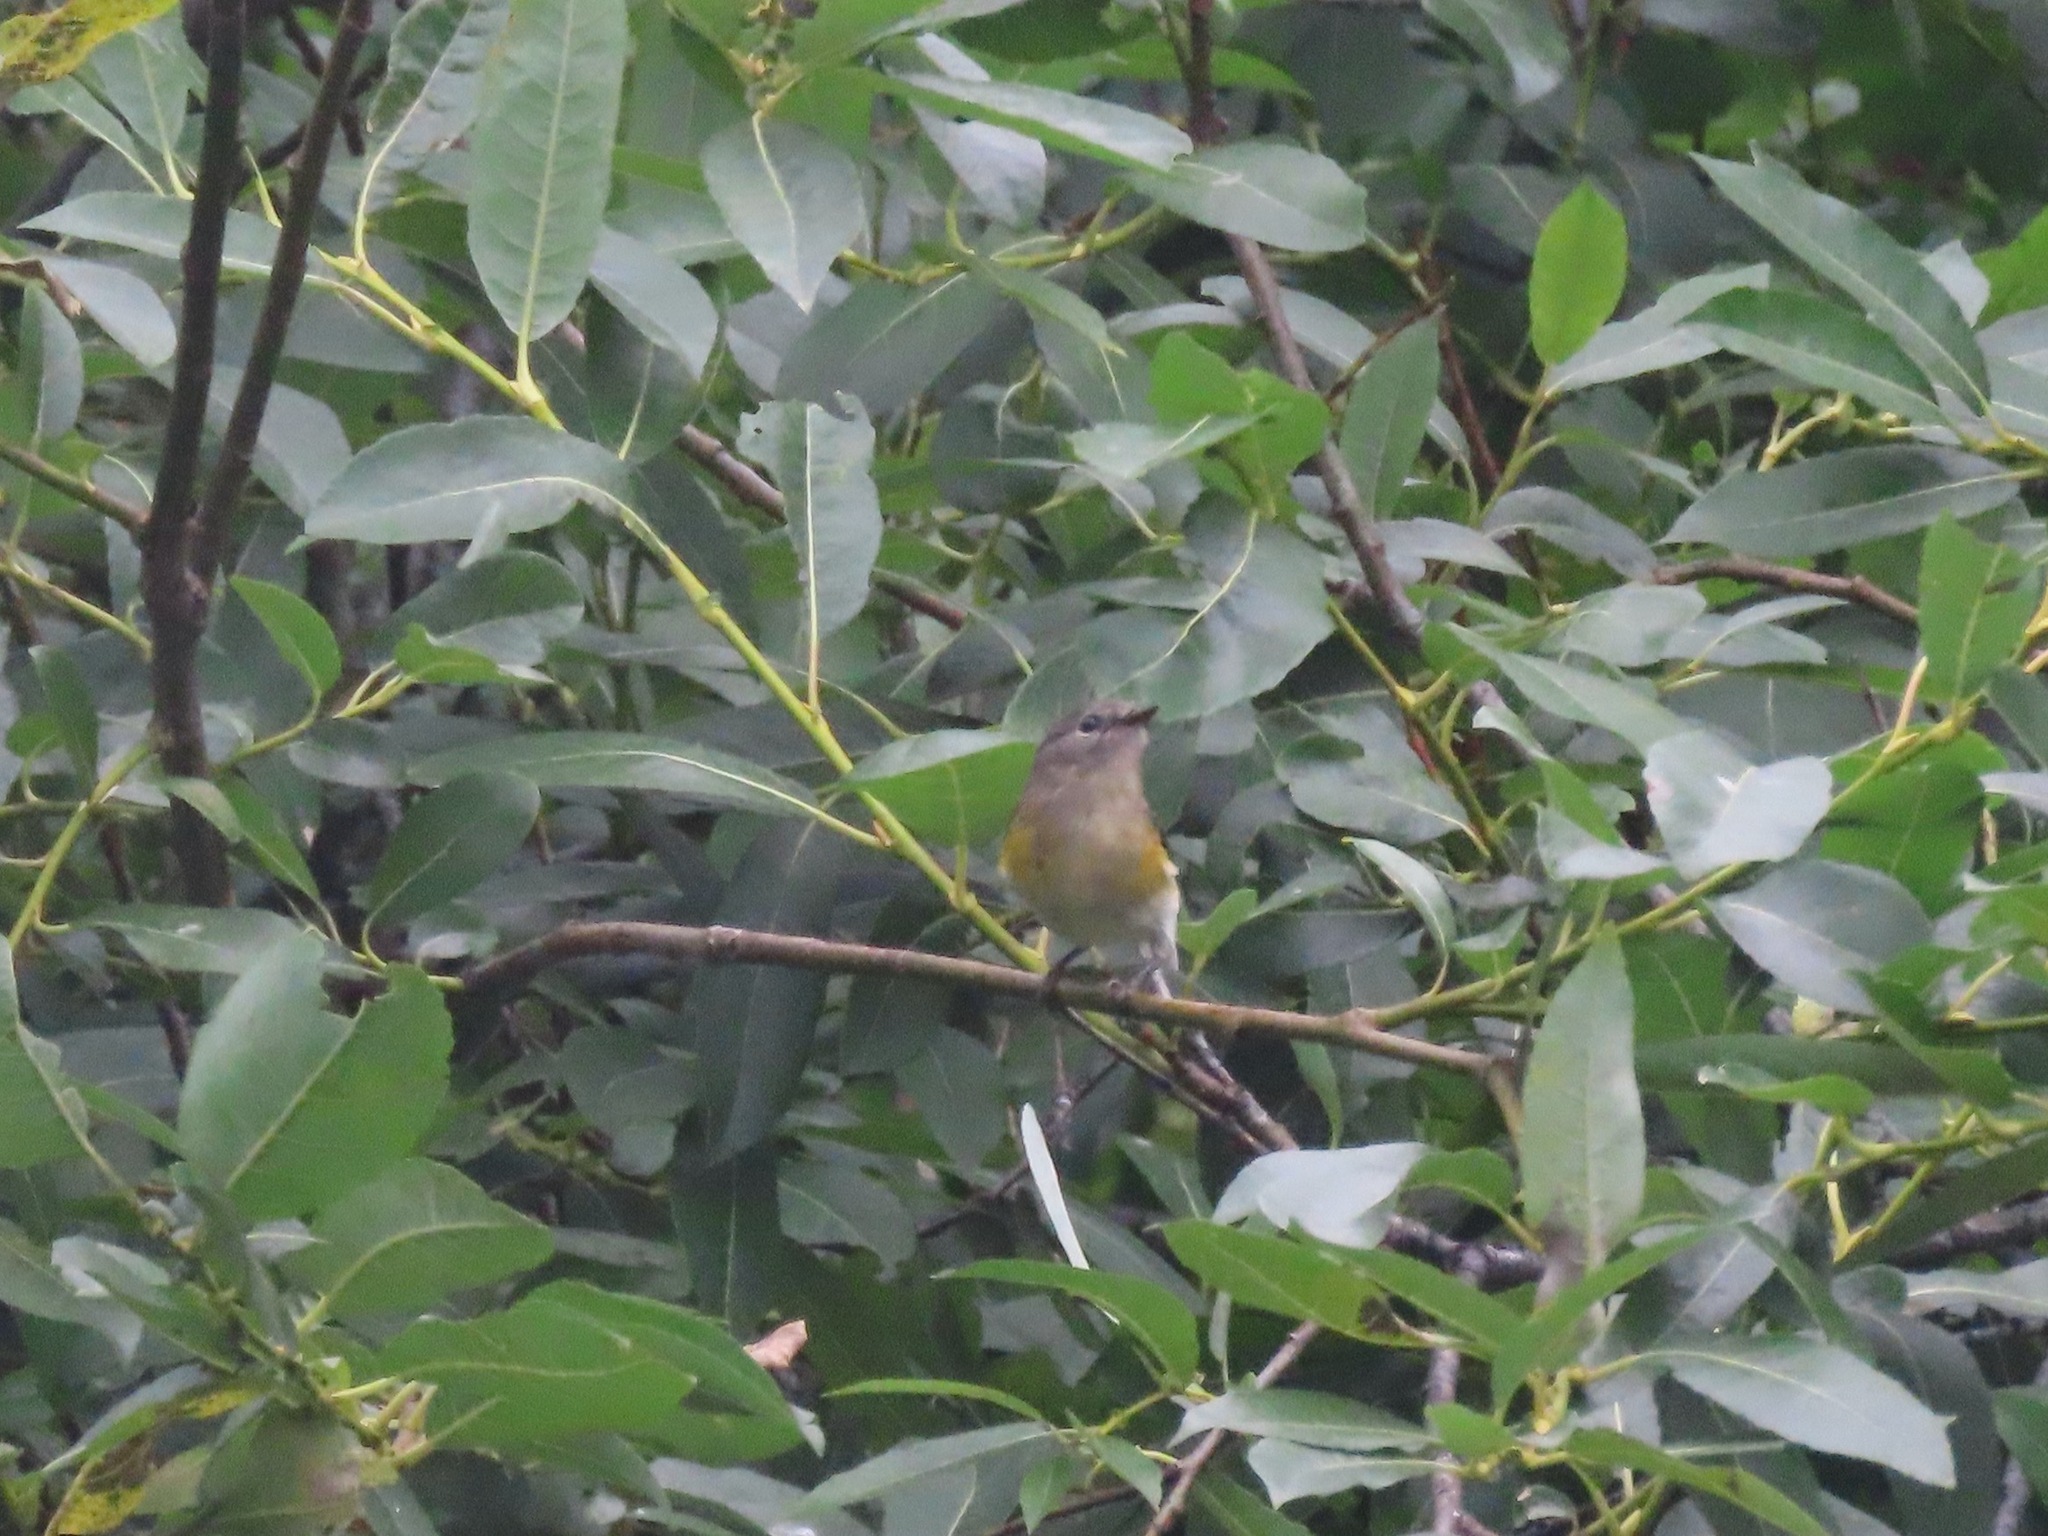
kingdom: Animalia
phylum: Chordata
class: Aves
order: Passeriformes
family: Parulidae
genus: Setophaga
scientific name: Setophaga ruticilla
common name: American redstart
